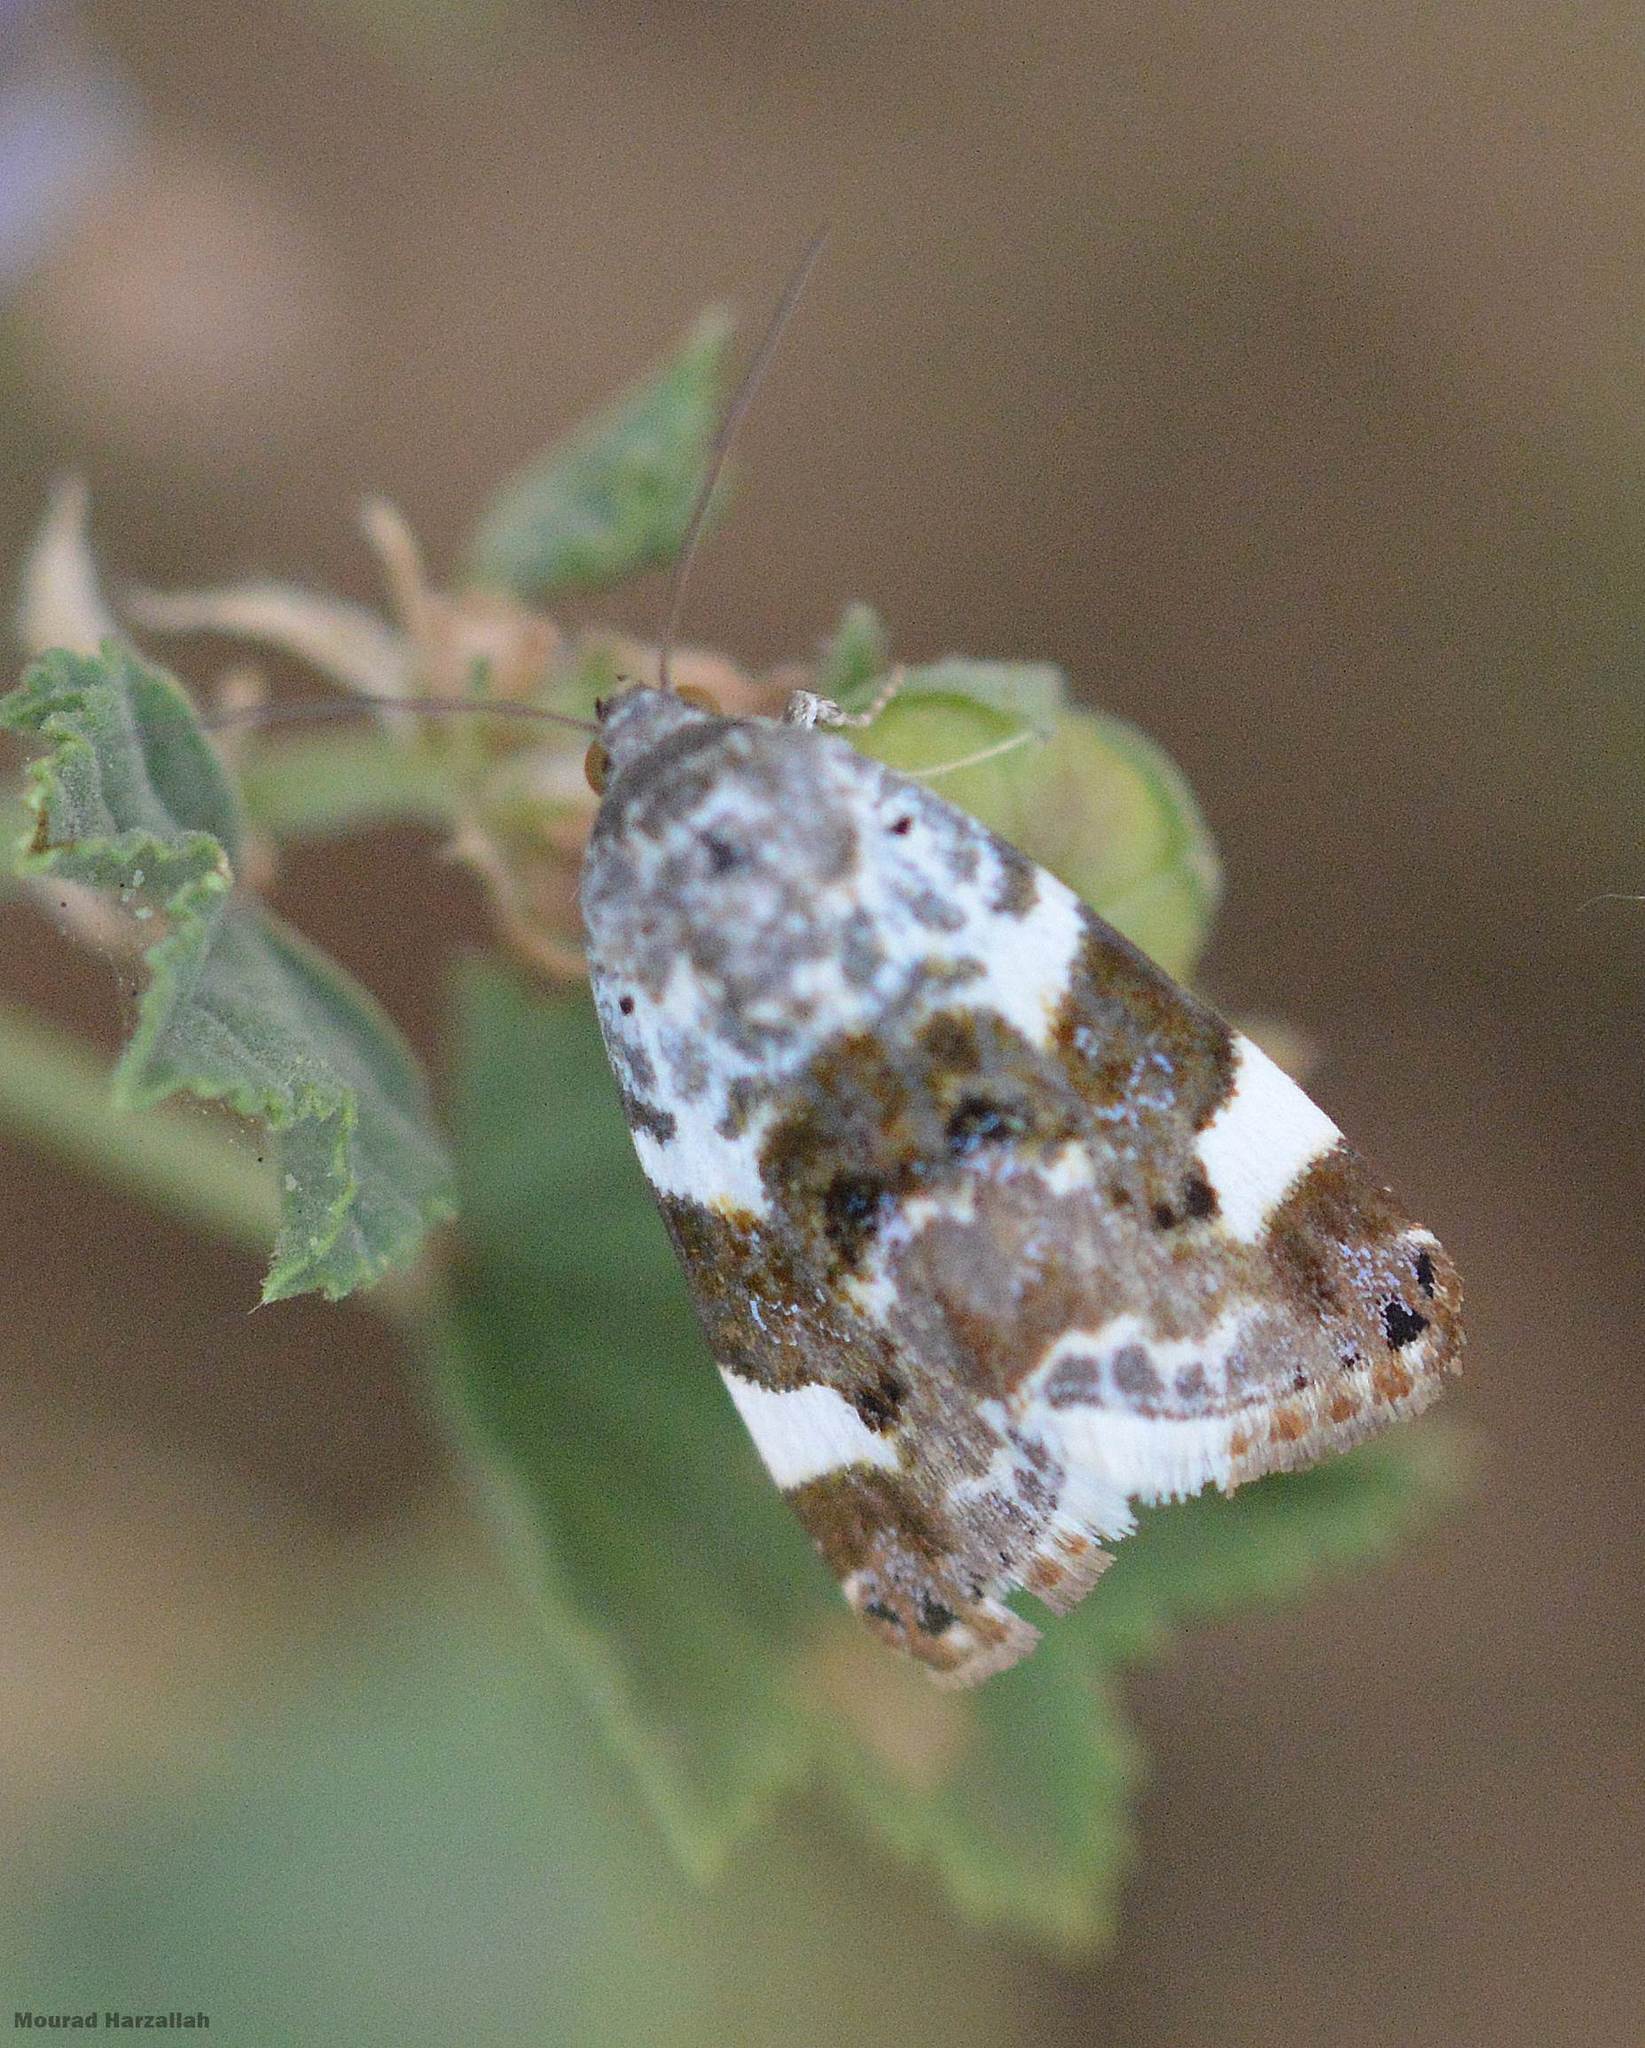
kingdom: Animalia
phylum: Arthropoda
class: Insecta
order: Lepidoptera
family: Noctuidae
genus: Acontia
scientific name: Acontia lucida
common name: Pale shoulder
